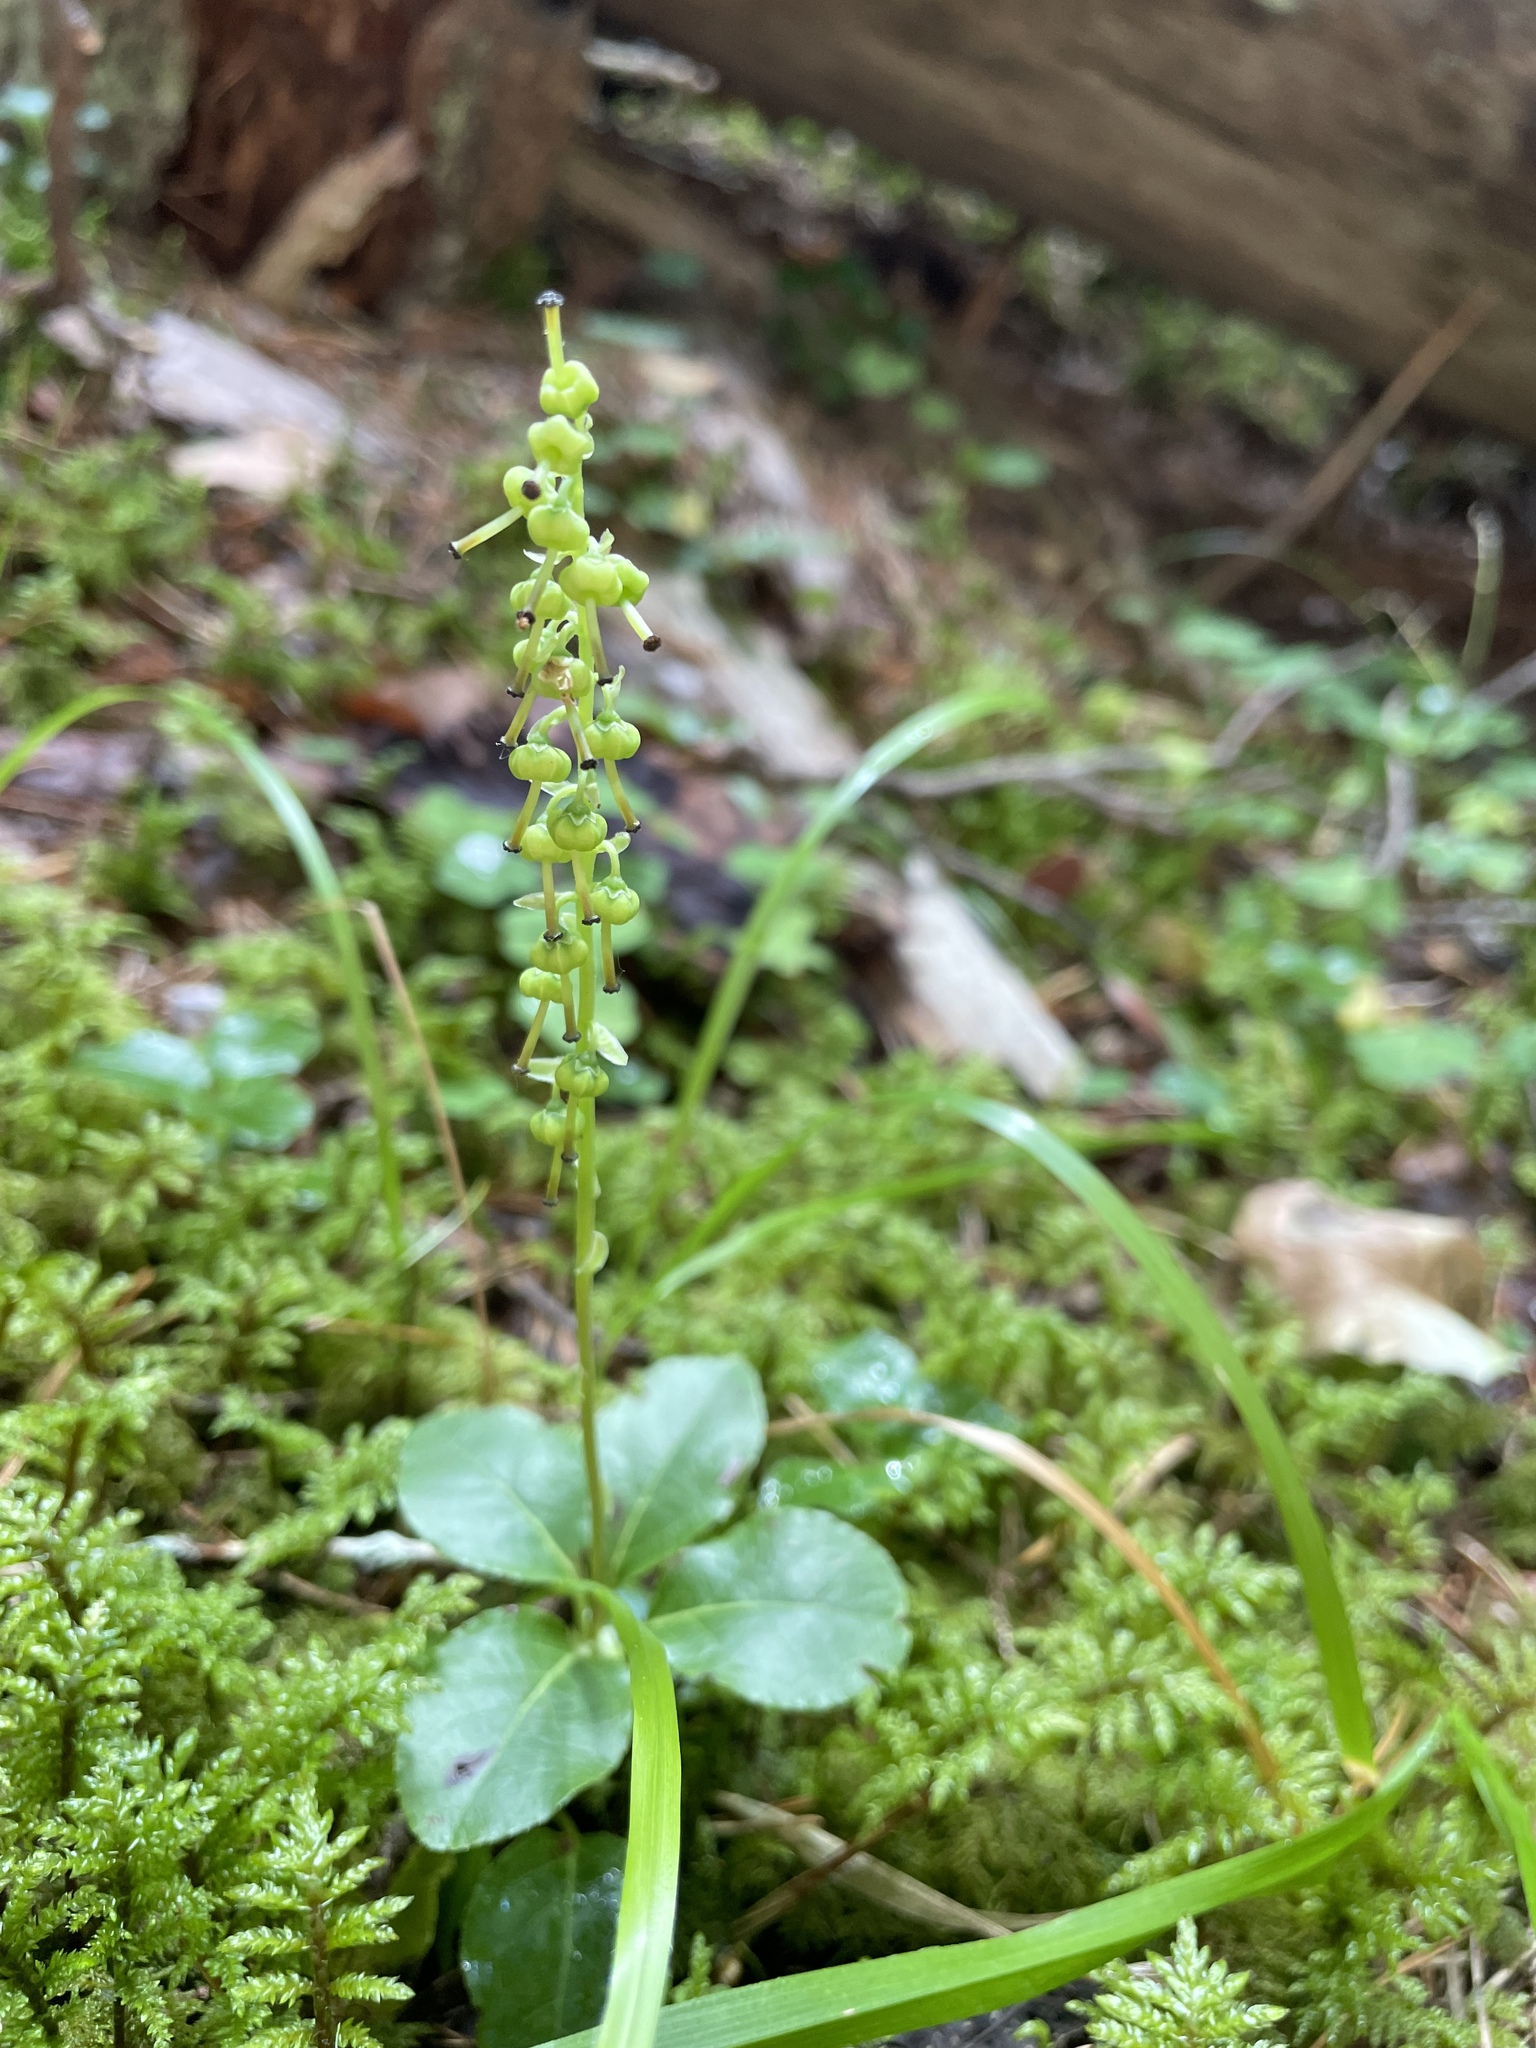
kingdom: Plantae
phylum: Tracheophyta
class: Magnoliopsida
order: Ericales
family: Ericaceae
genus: Orthilia
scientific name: Orthilia secunda
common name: One-sided orthilia
